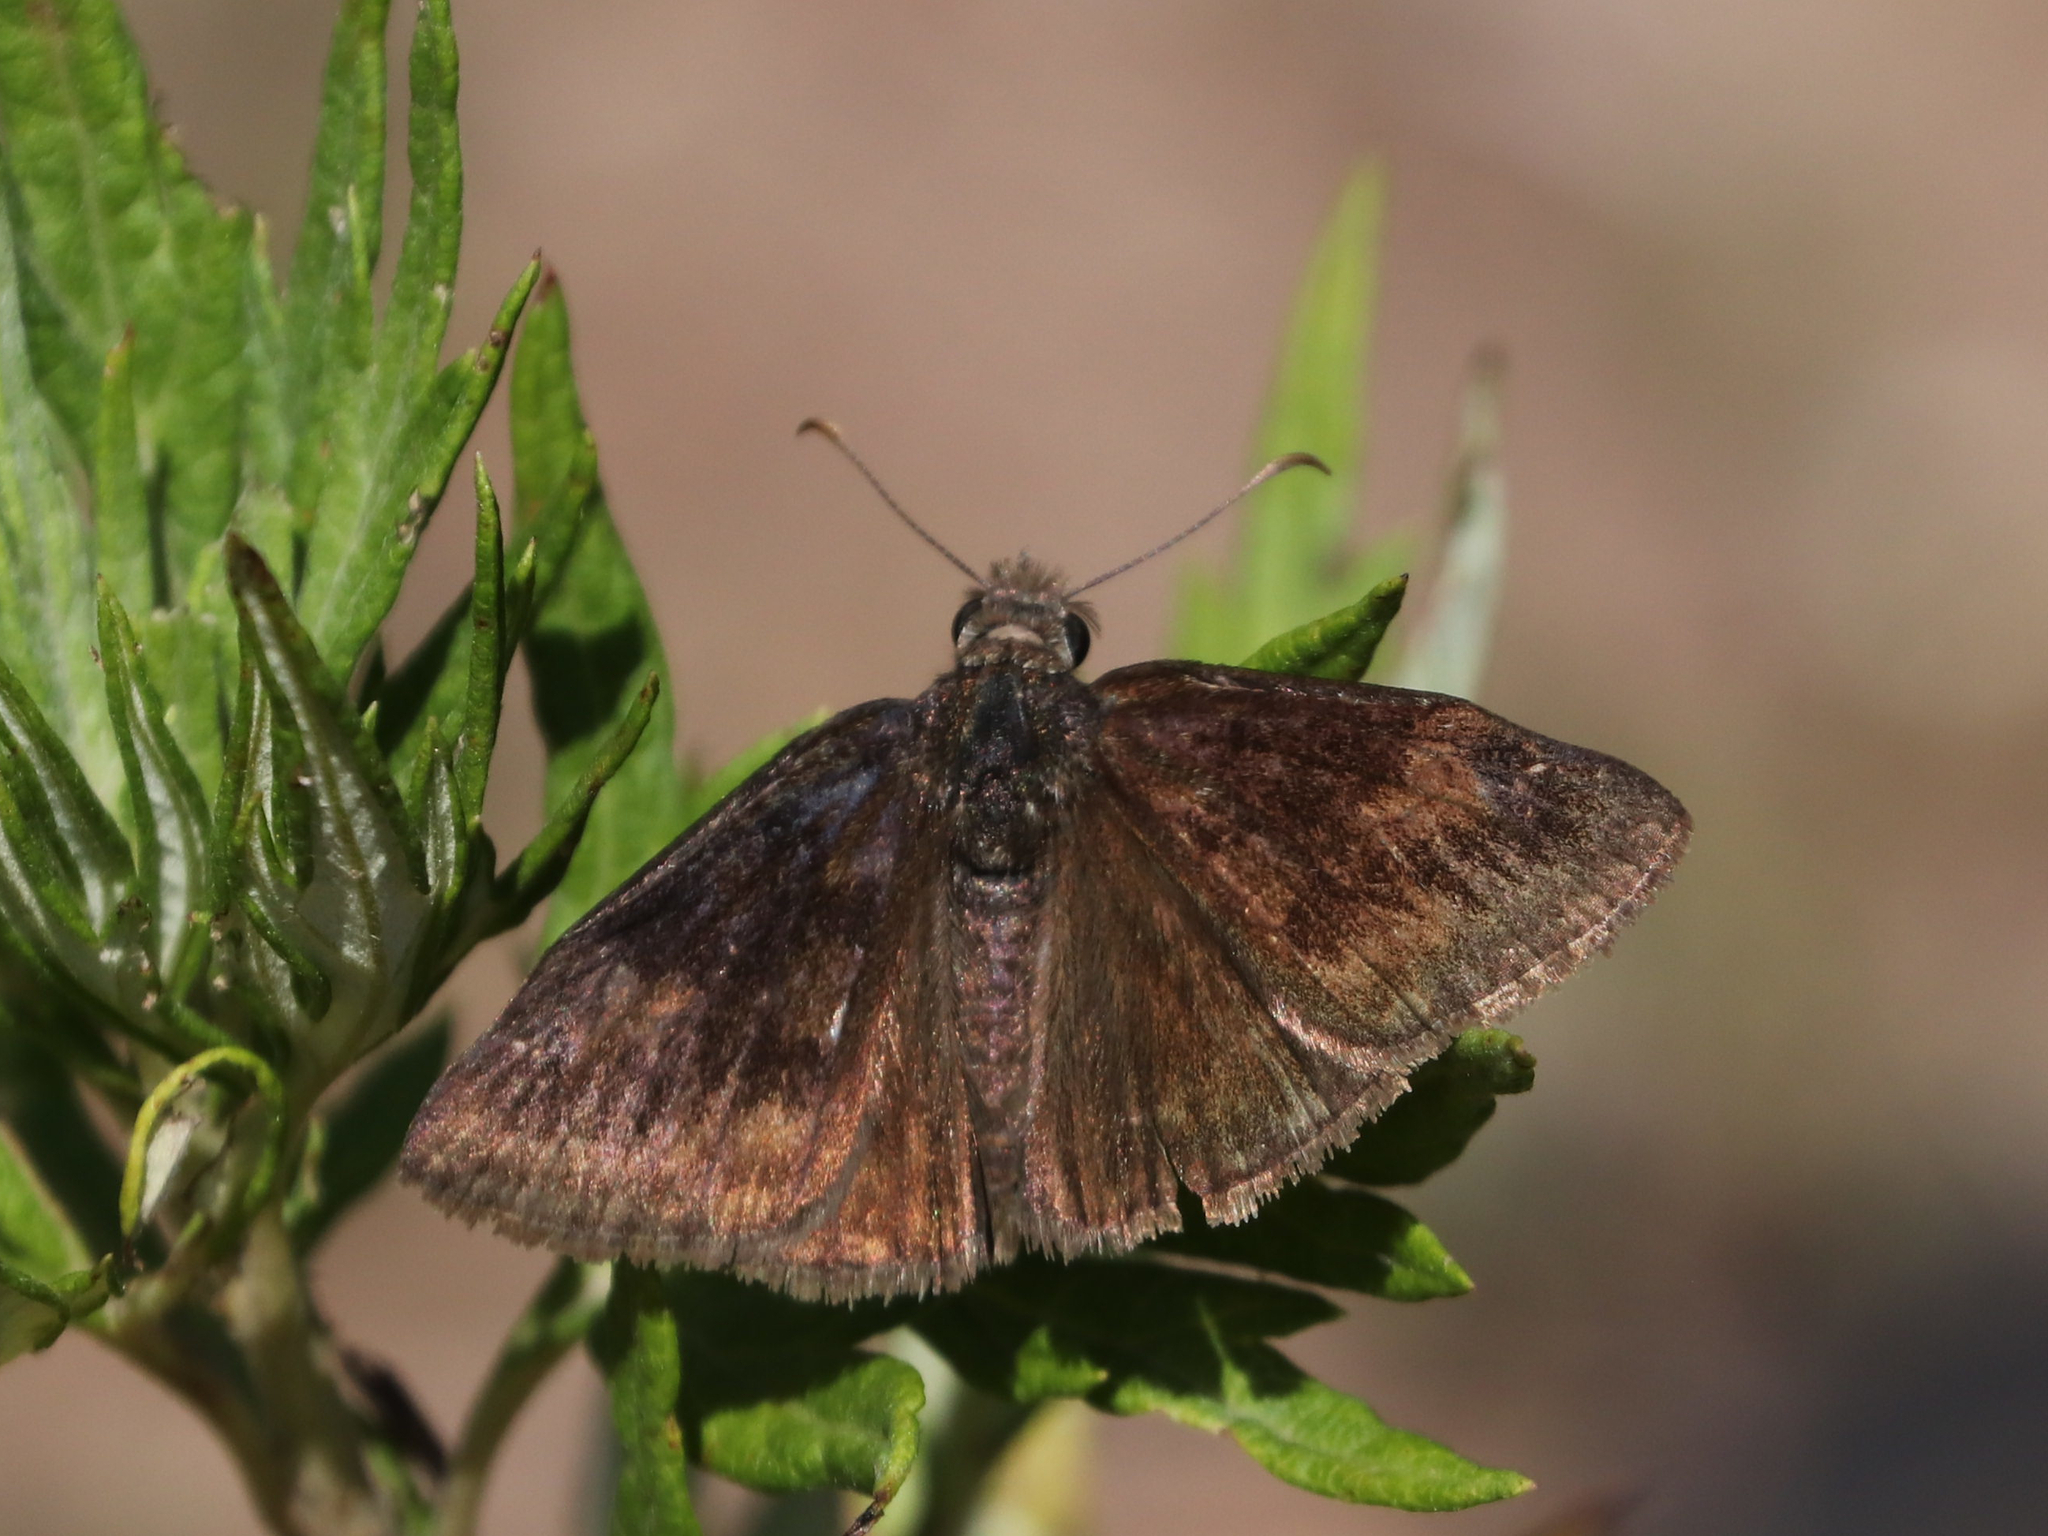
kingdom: Animalia
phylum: Arthropoda
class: Insecta
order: Lepidoptera
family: Hesperiidae
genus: Erynnis
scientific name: Erynnis baptisiae
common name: Wild indigo duskywing
